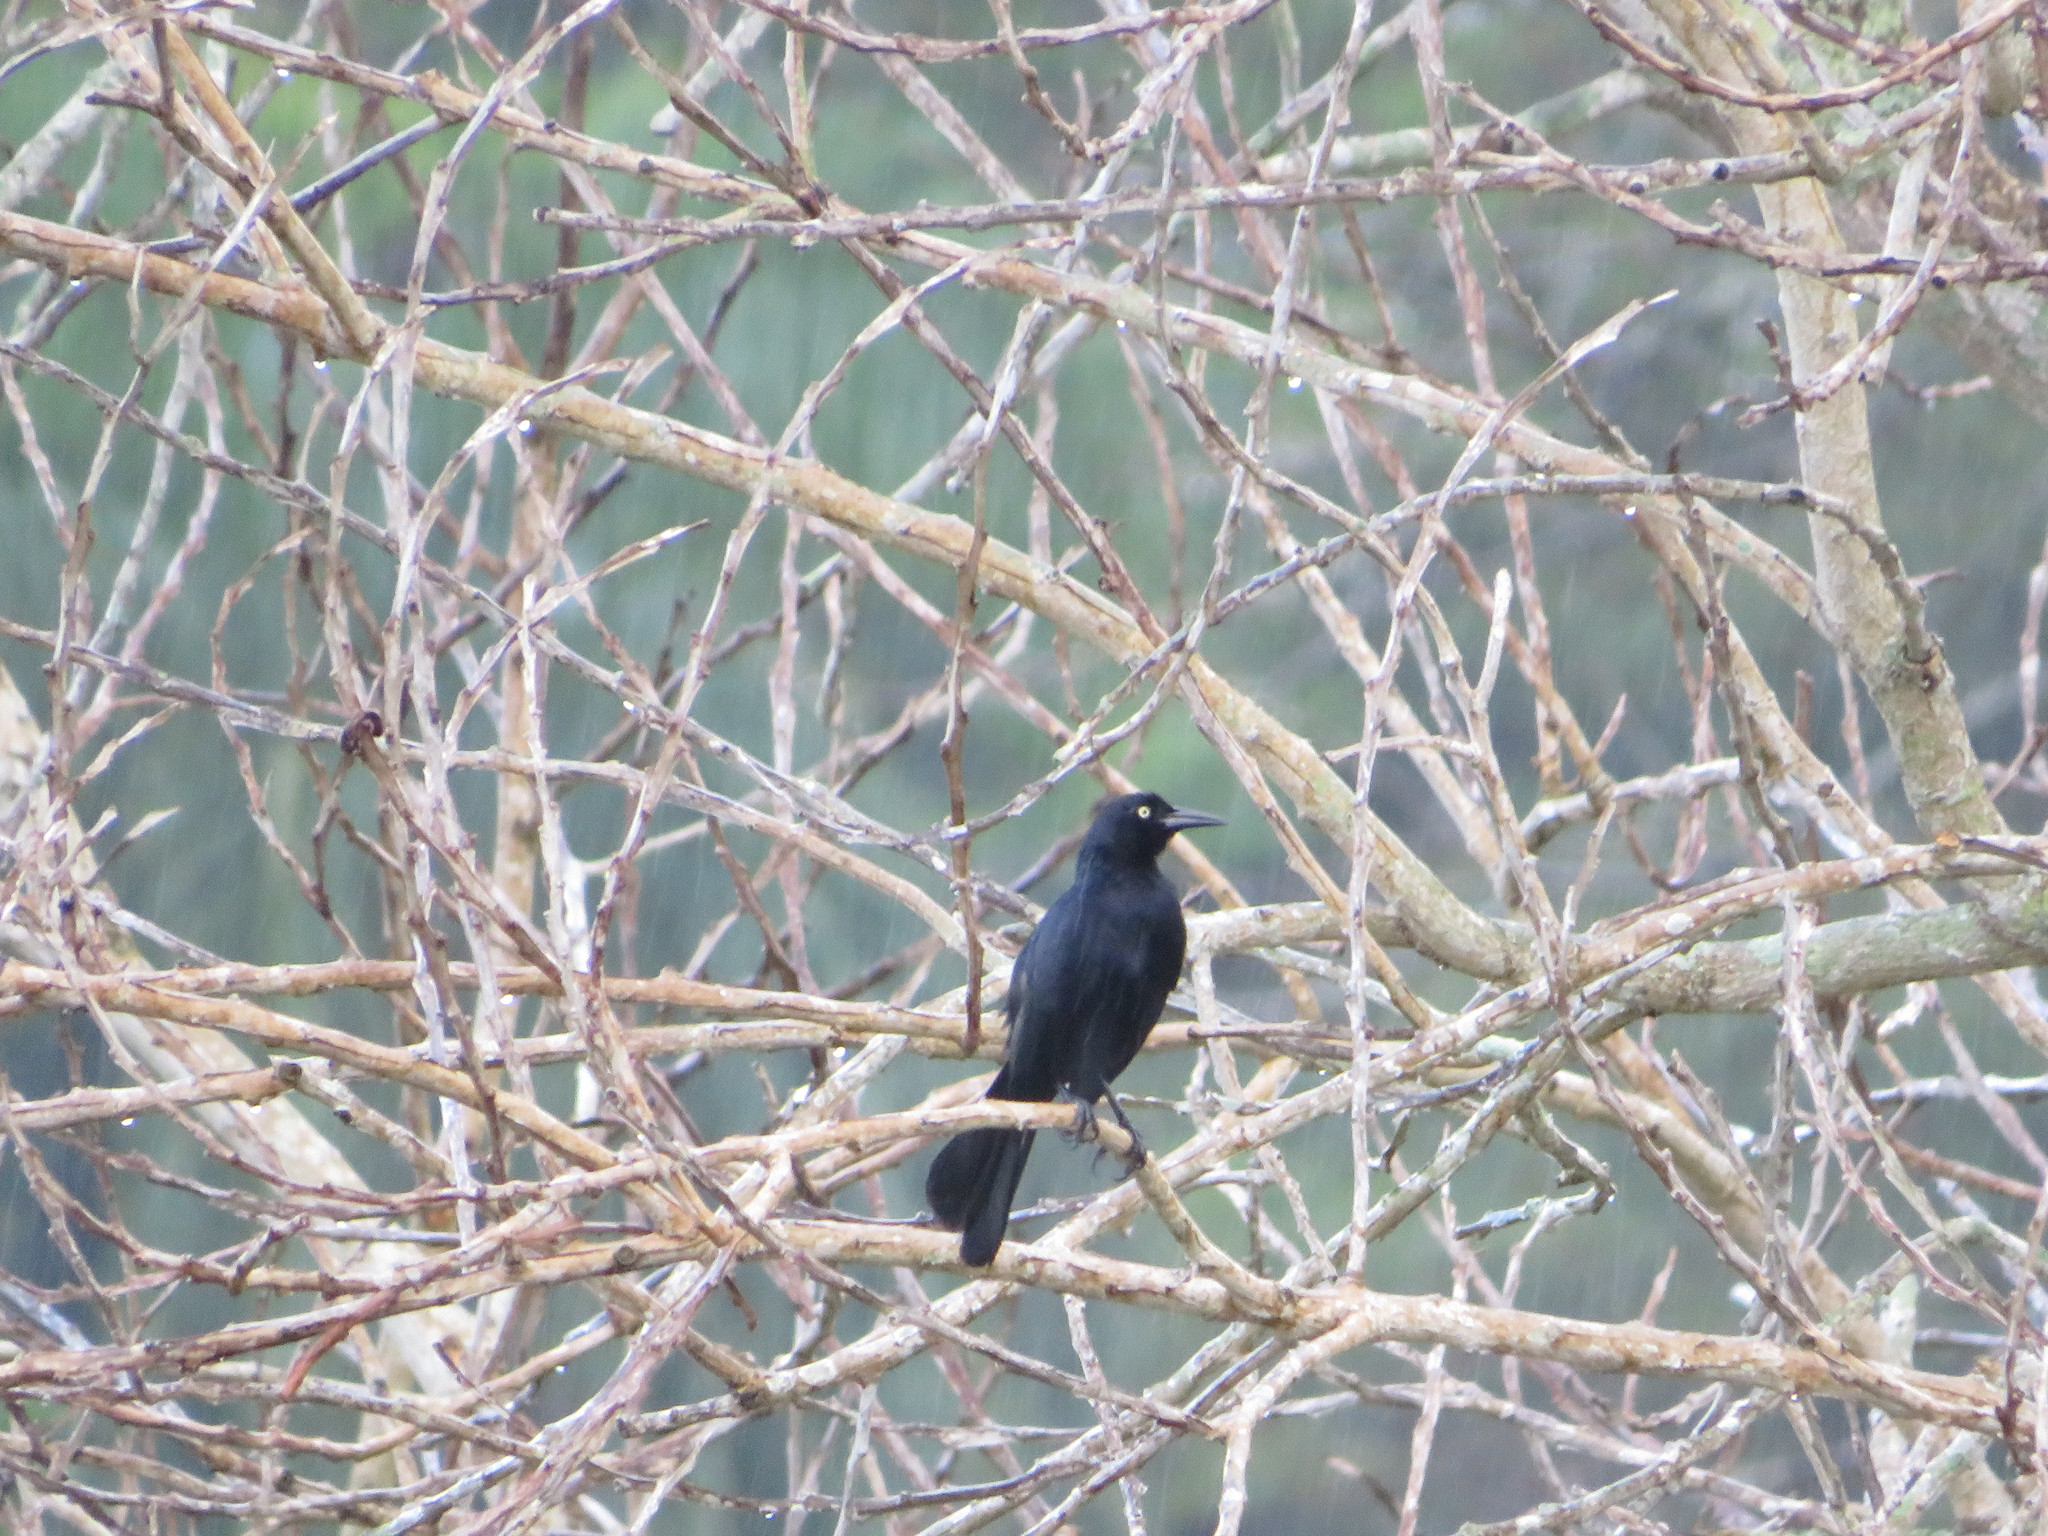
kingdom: Animalia
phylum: Chordata
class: Aves
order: Passeriformes
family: Icteridae
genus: Quiscalus
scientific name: Quiscalus niger
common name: Greater antillean grackle
